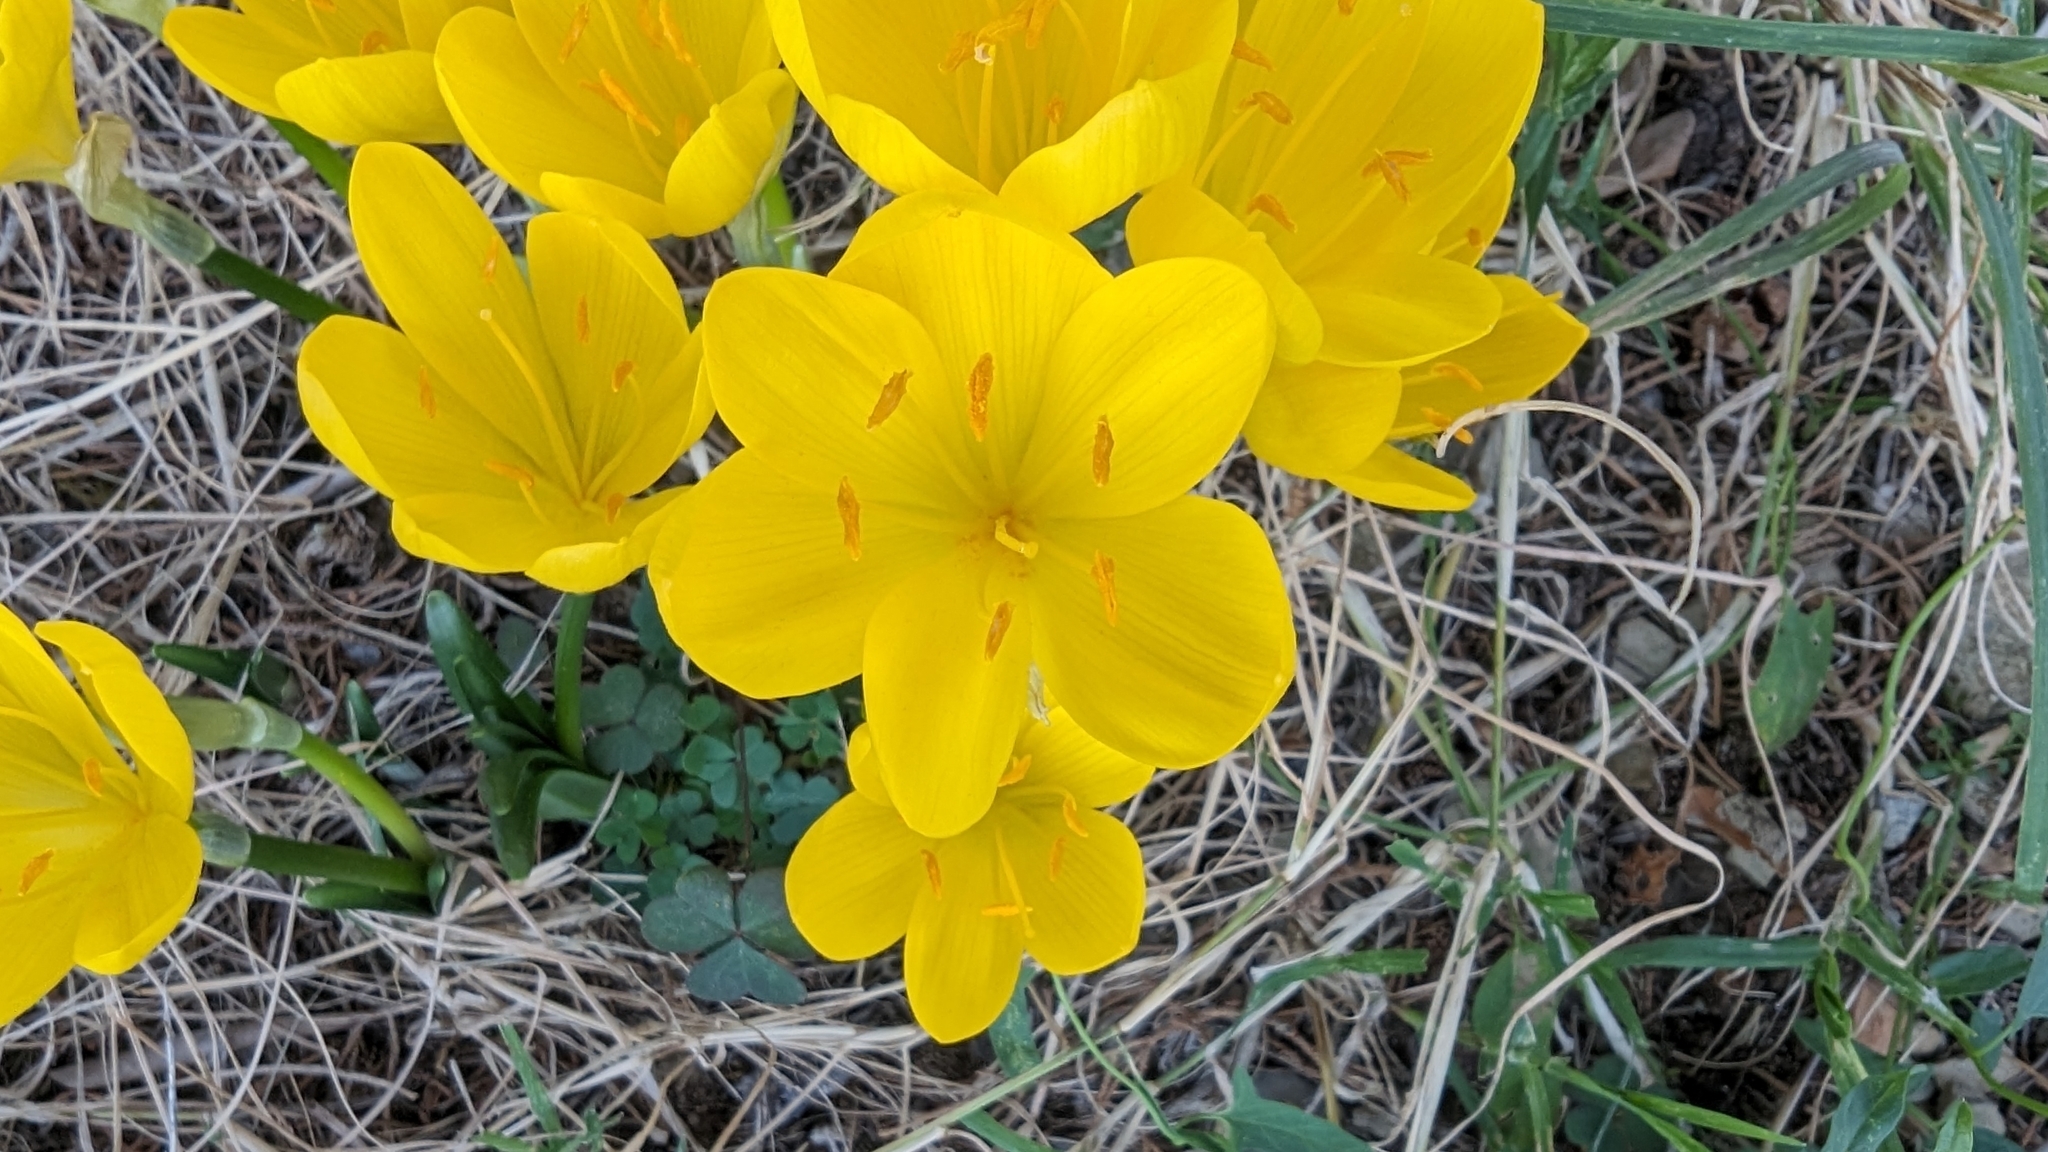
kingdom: Plantae
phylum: Tracheophyta
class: Liliopsida
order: Asparagales
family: Amaryllidaceae
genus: Sternbergia
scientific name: Sternbergia lutea
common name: Winter daffodil
